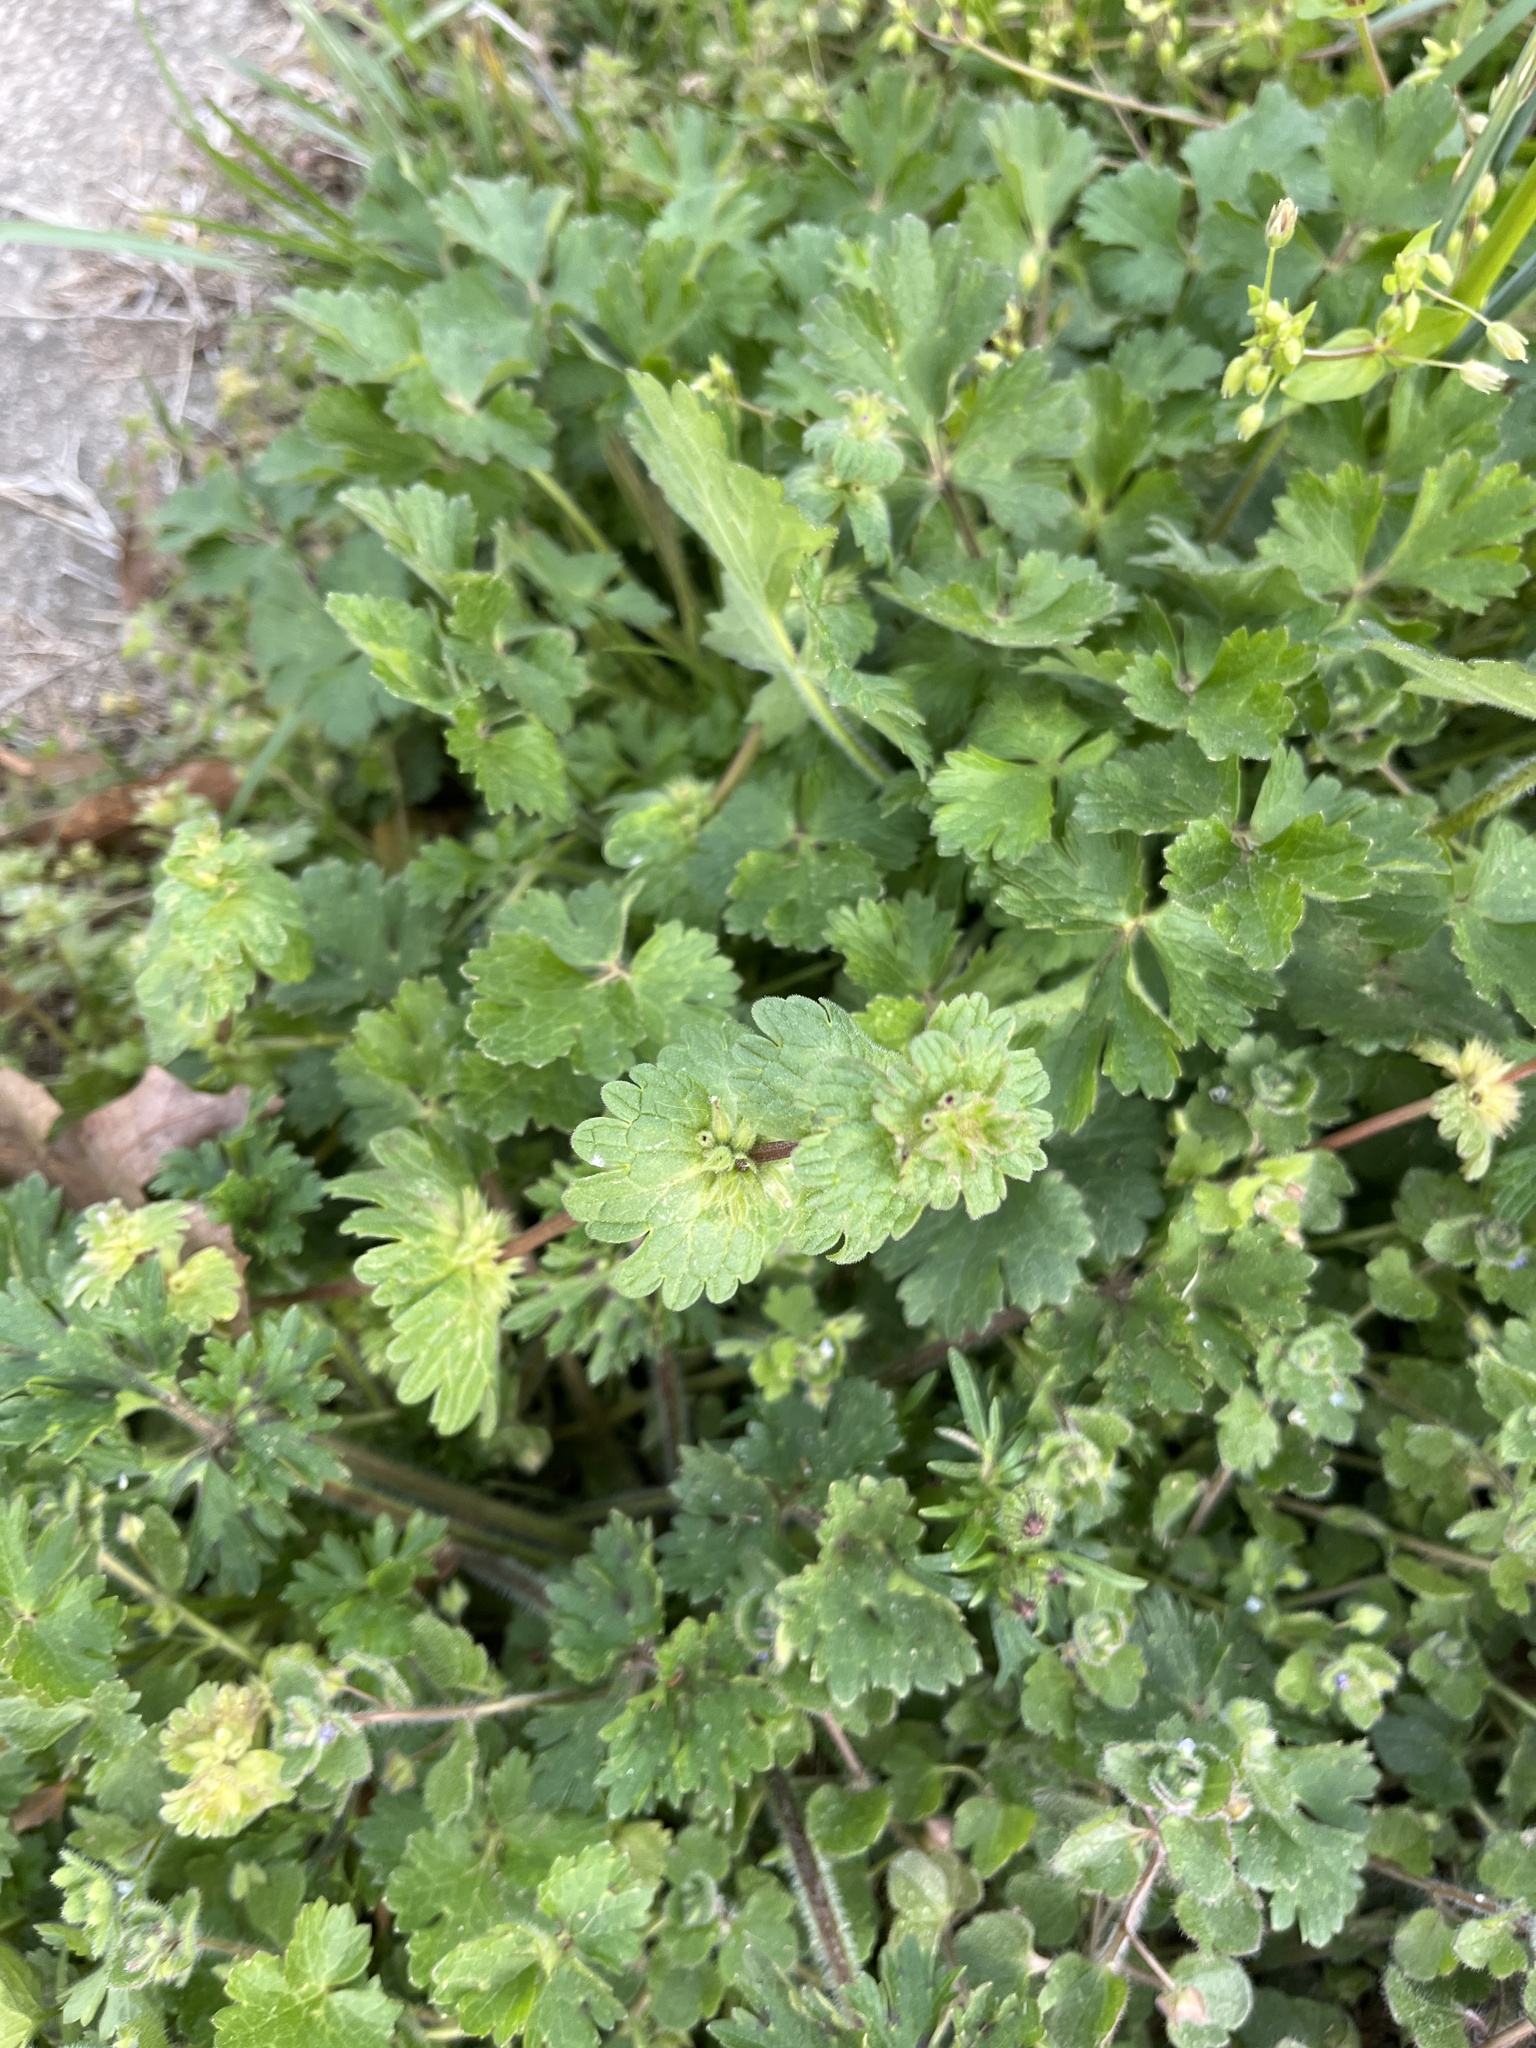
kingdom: Plantae
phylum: Tracheophyta
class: Magnoliopsida
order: Lamiales
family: Lamiaceae
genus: Lamium
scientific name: Lamium amplexicaule
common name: Henbit dead-nettle
